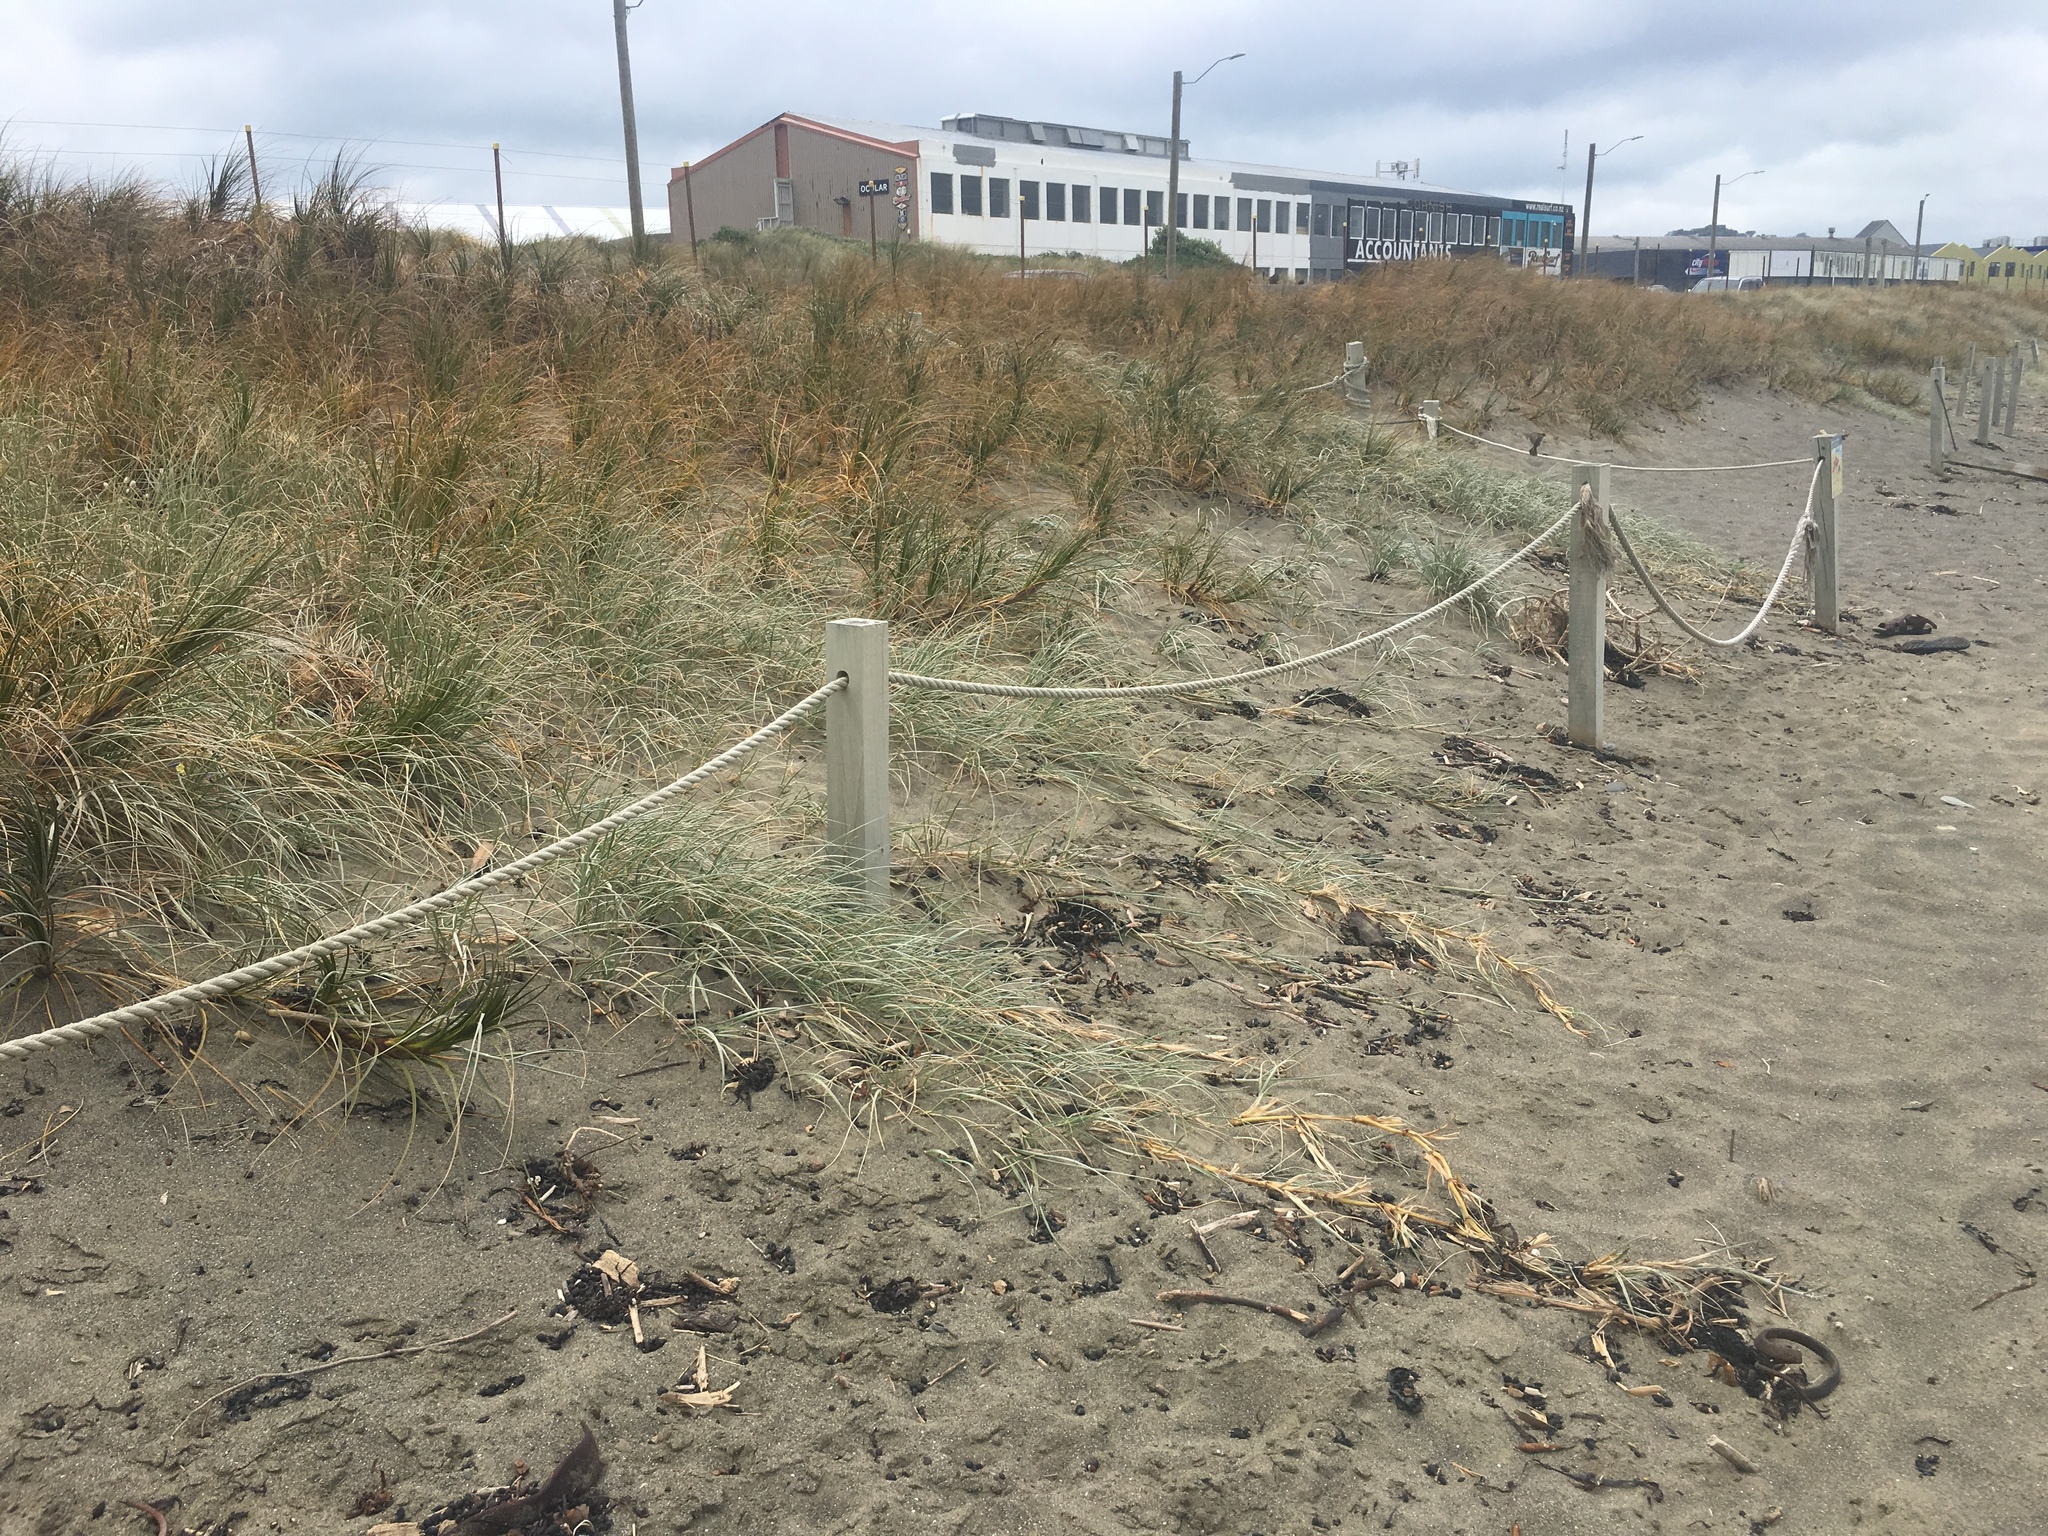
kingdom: Plantae
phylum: Tracheophyta
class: Liliopsida
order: Poales
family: Poaceae
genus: Spinifex
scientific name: Spinifex sericeus
